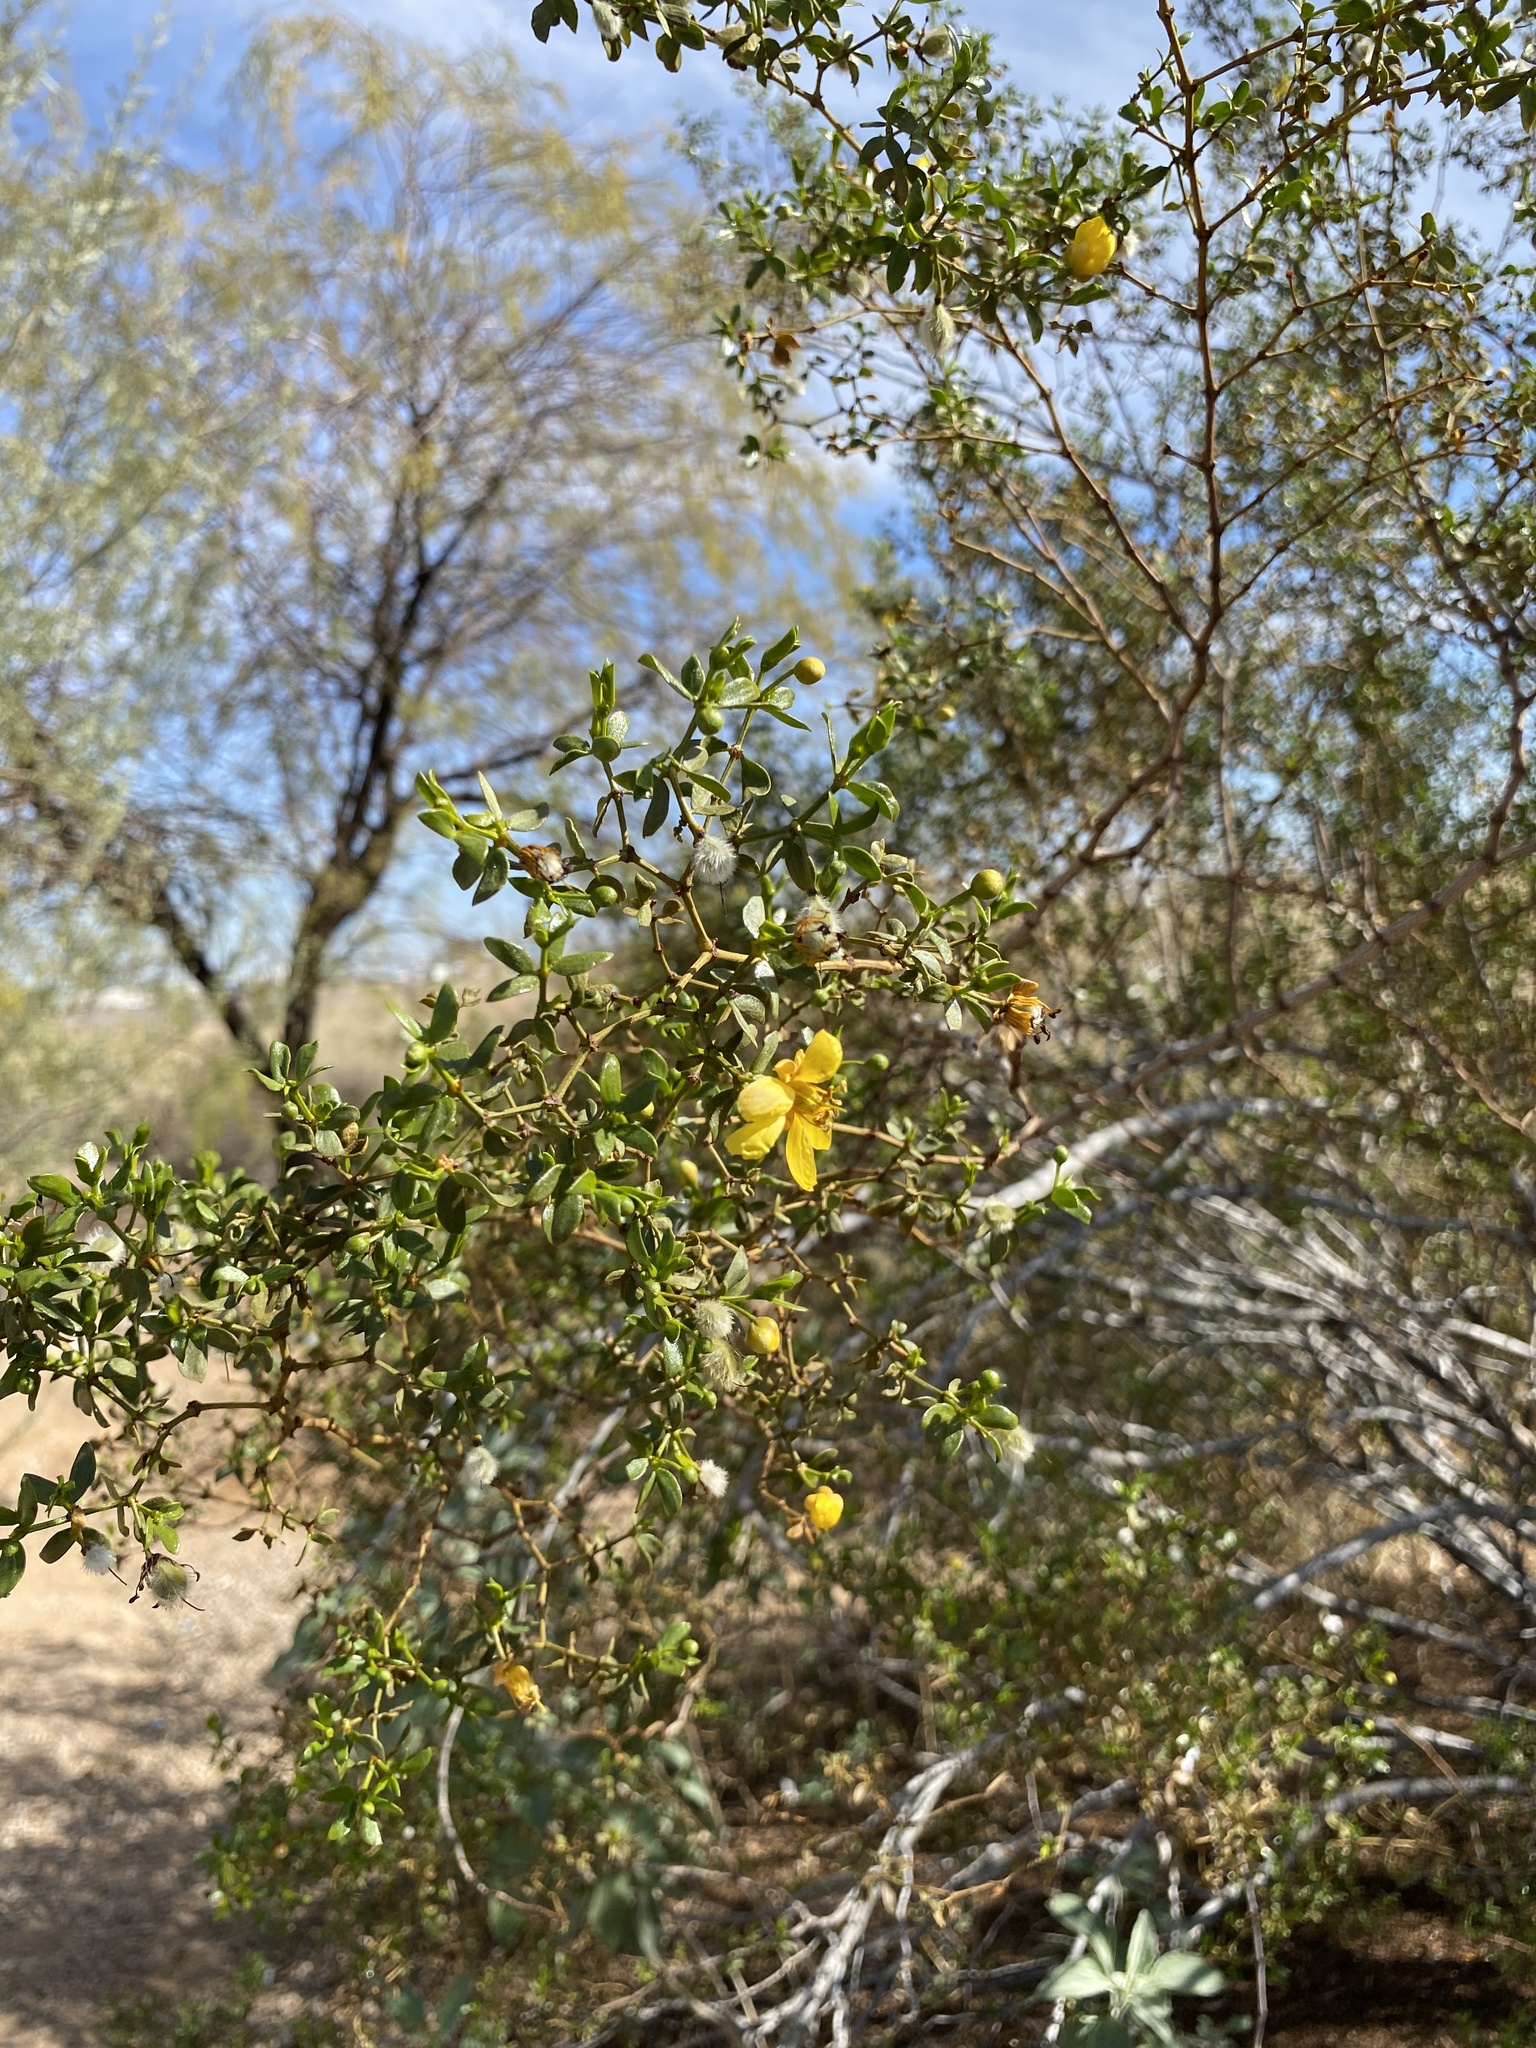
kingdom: Plantae
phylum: Tracheophyta
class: Magnoliopsida
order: Zygophyllales
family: Zygophyllaceae
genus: Larrea
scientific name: Larrea tridentata
